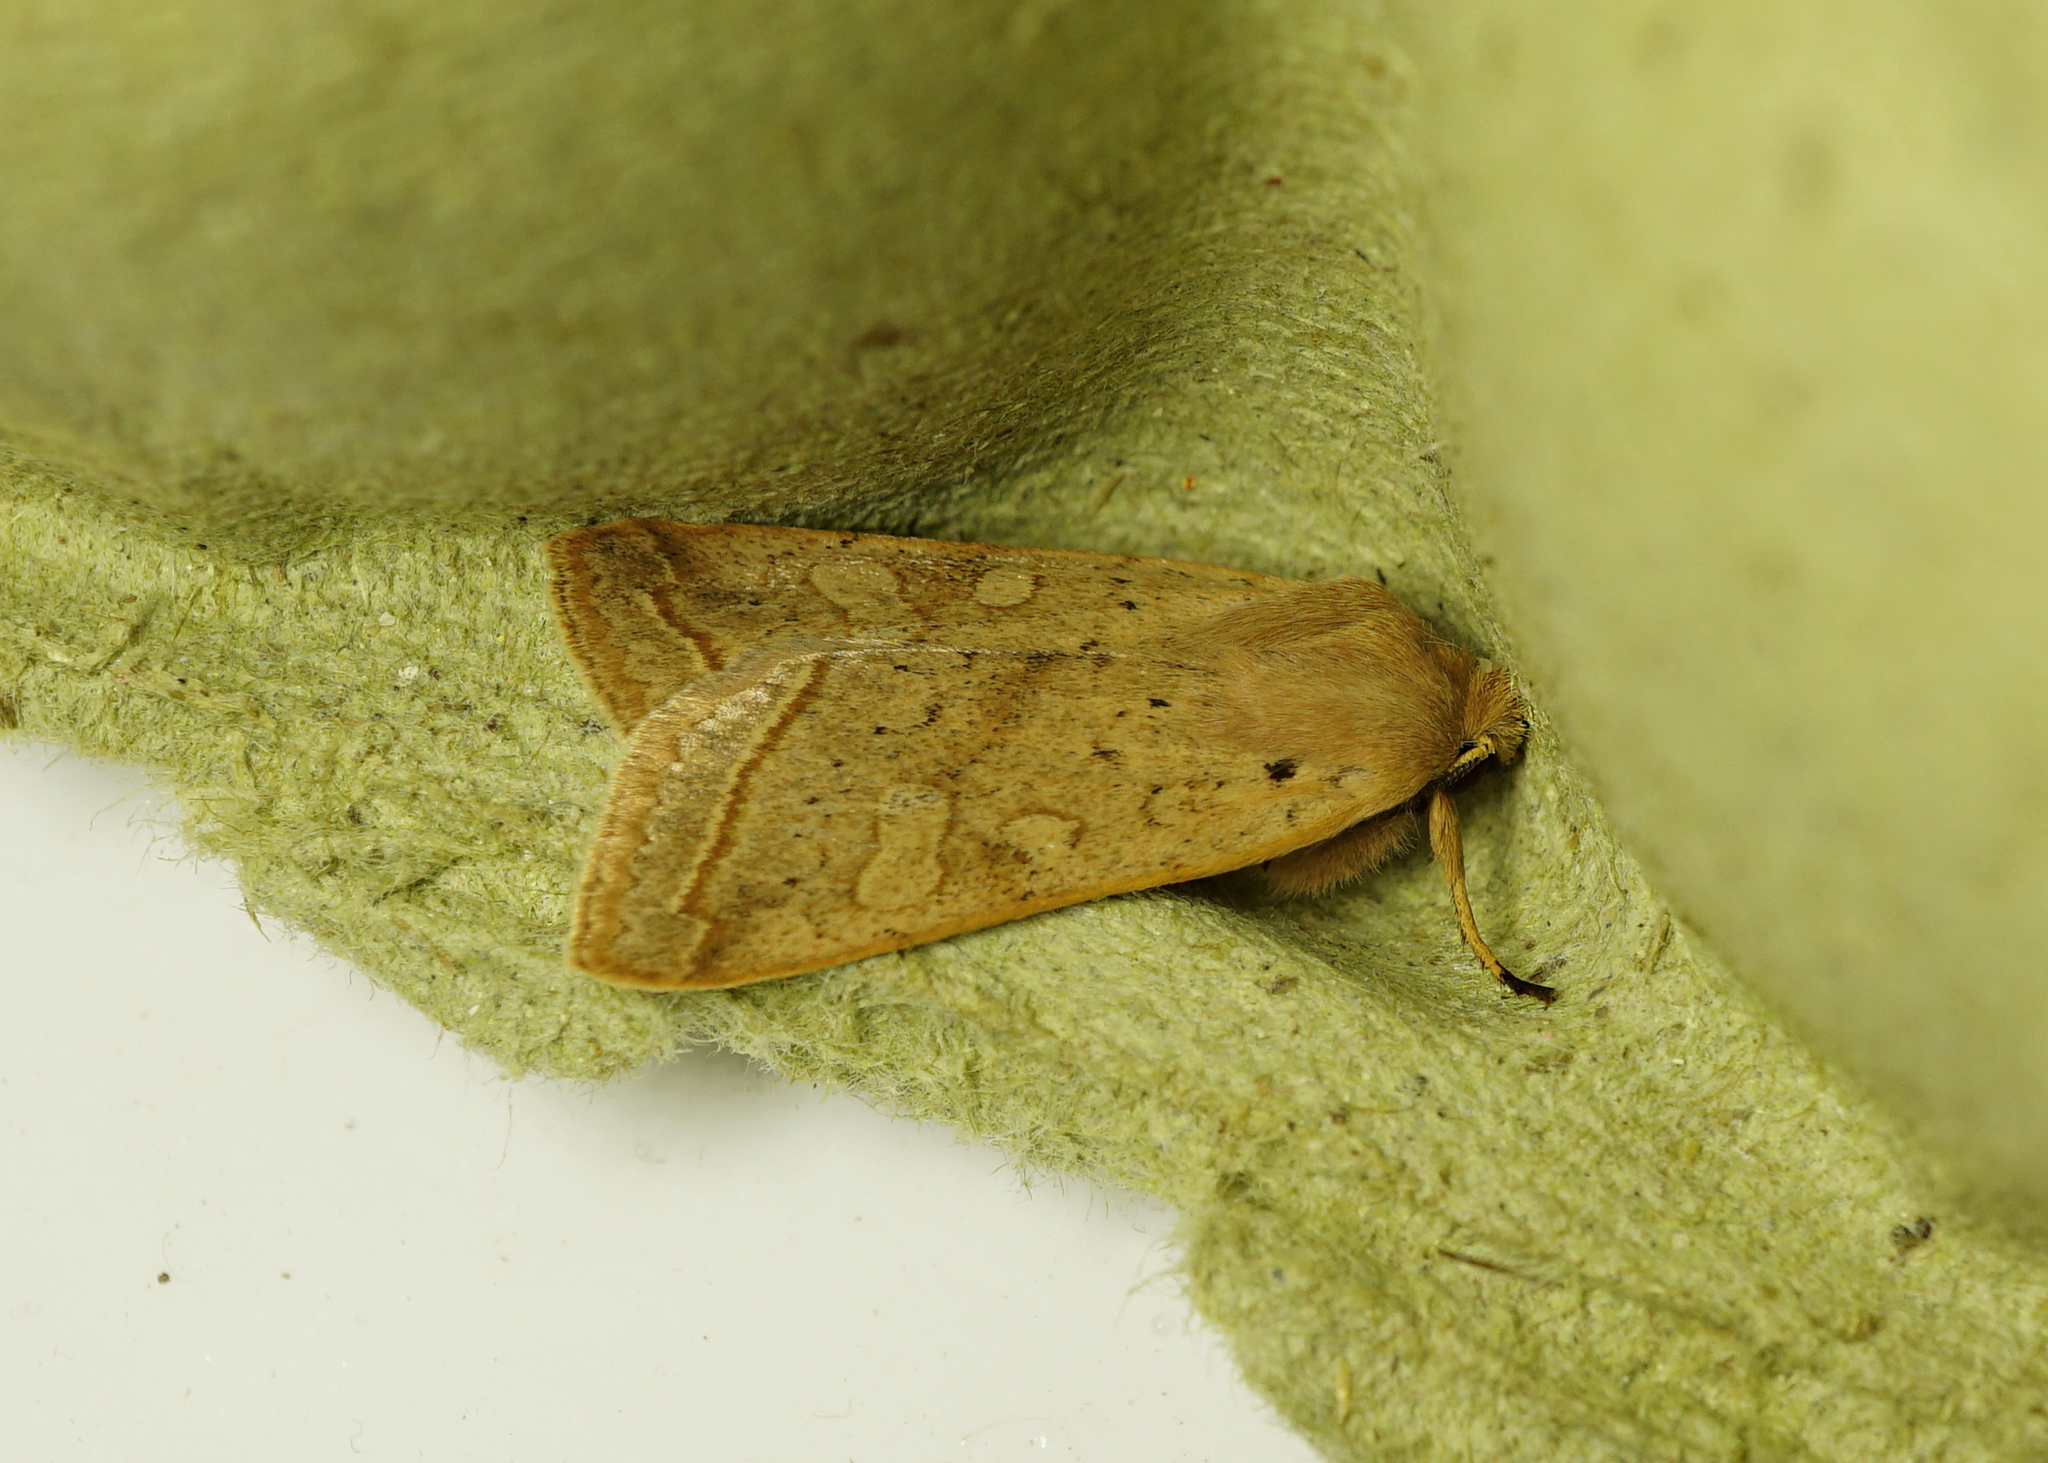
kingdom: Animalia
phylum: Arthropoda
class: Insecta
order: Lepidoptera
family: Noctuidae
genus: Agrochola
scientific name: Agrochola macilenta
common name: Yellow-line quaker
